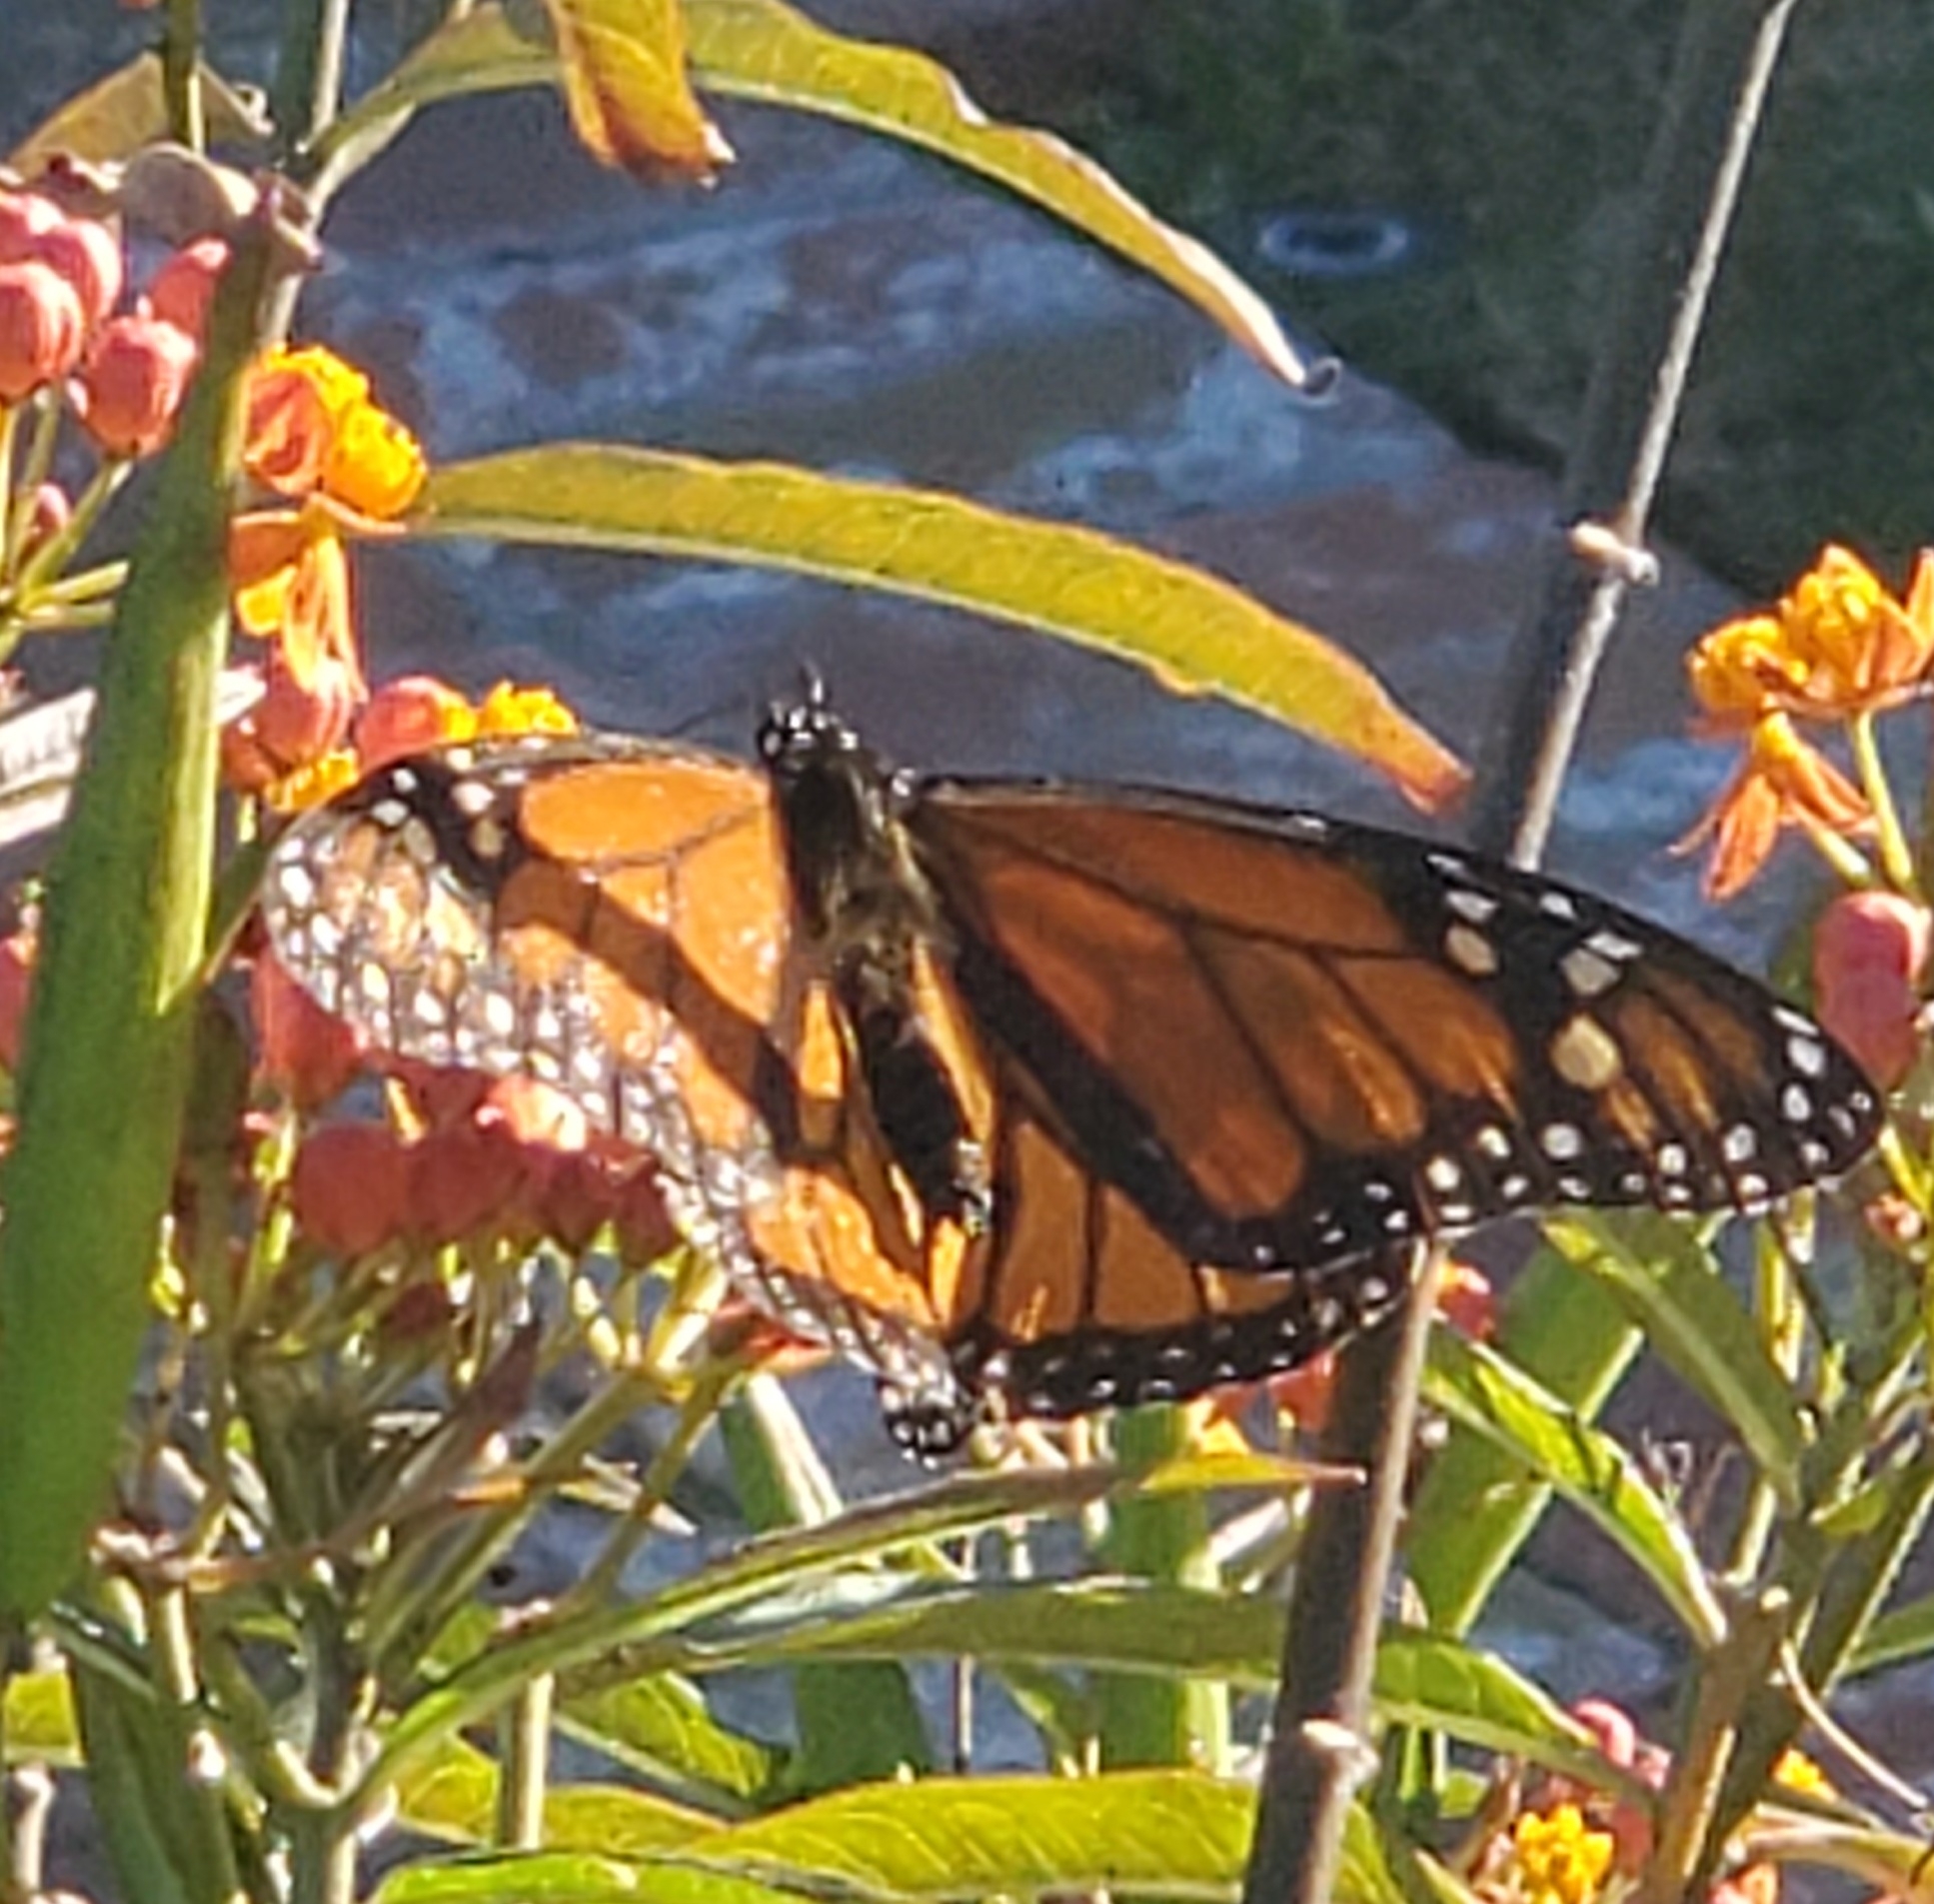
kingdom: Animalia
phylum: Arthropoda
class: Insecta
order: Lepidoptera
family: Nymphalidae
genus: Danaus
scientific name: Danaus plexippus
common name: Monarch
